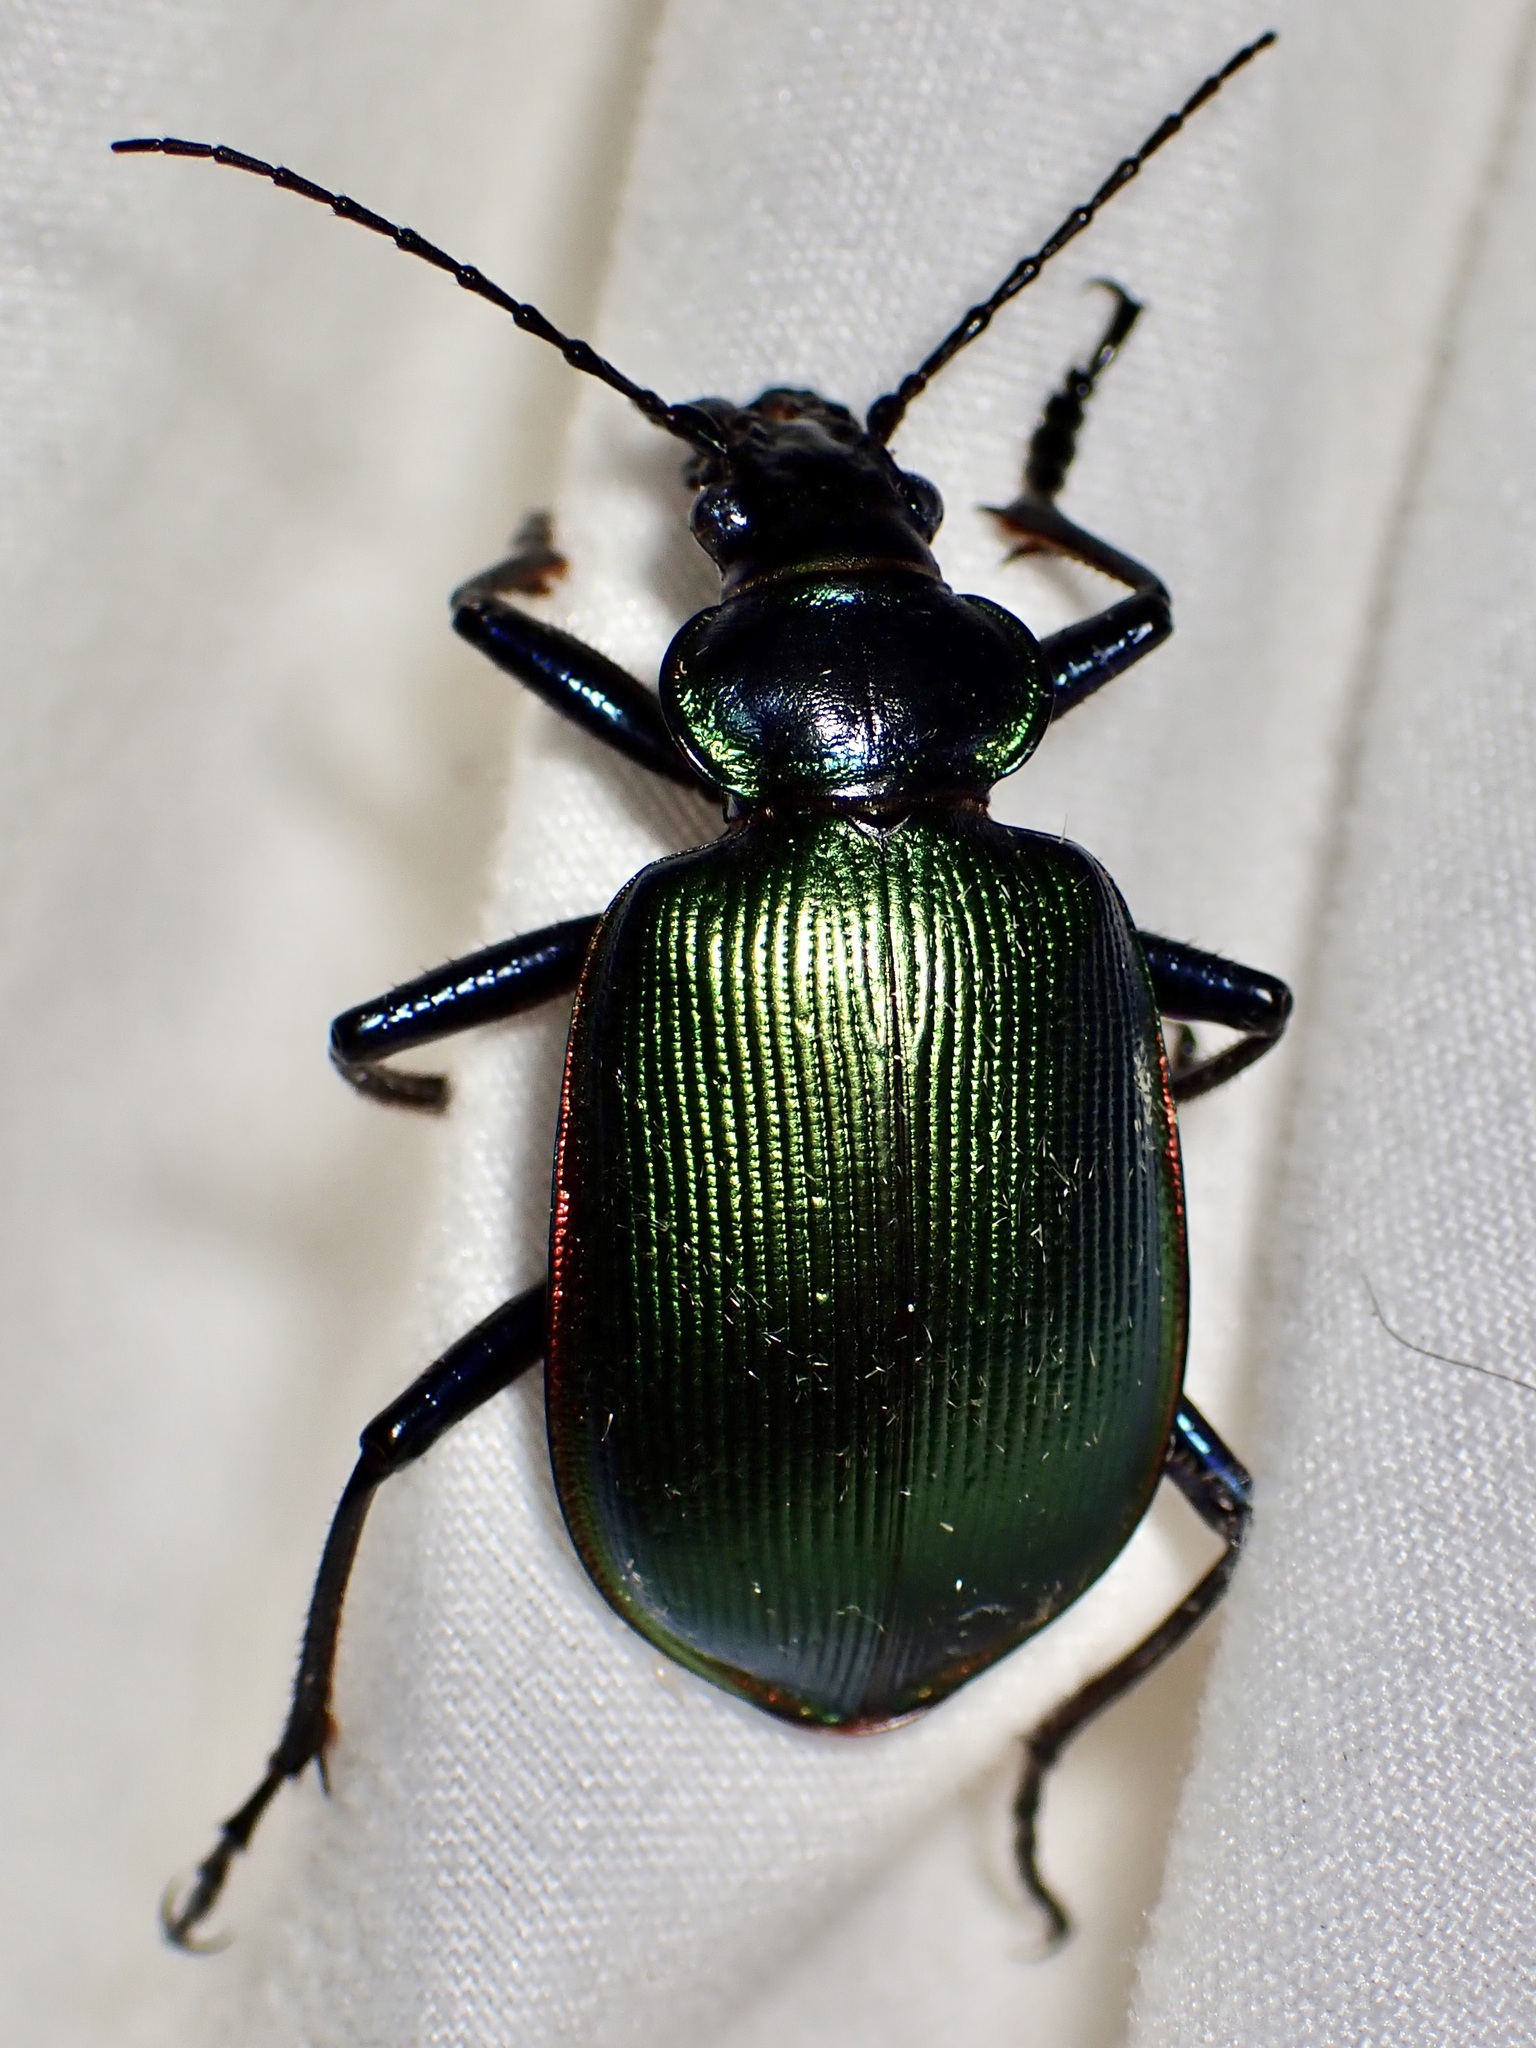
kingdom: Animalia
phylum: Arthropoda
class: Insecta
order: Coleoptera
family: Carabidae
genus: Calosoma
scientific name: Calosoma scrutator
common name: Fiery searcher beetle
